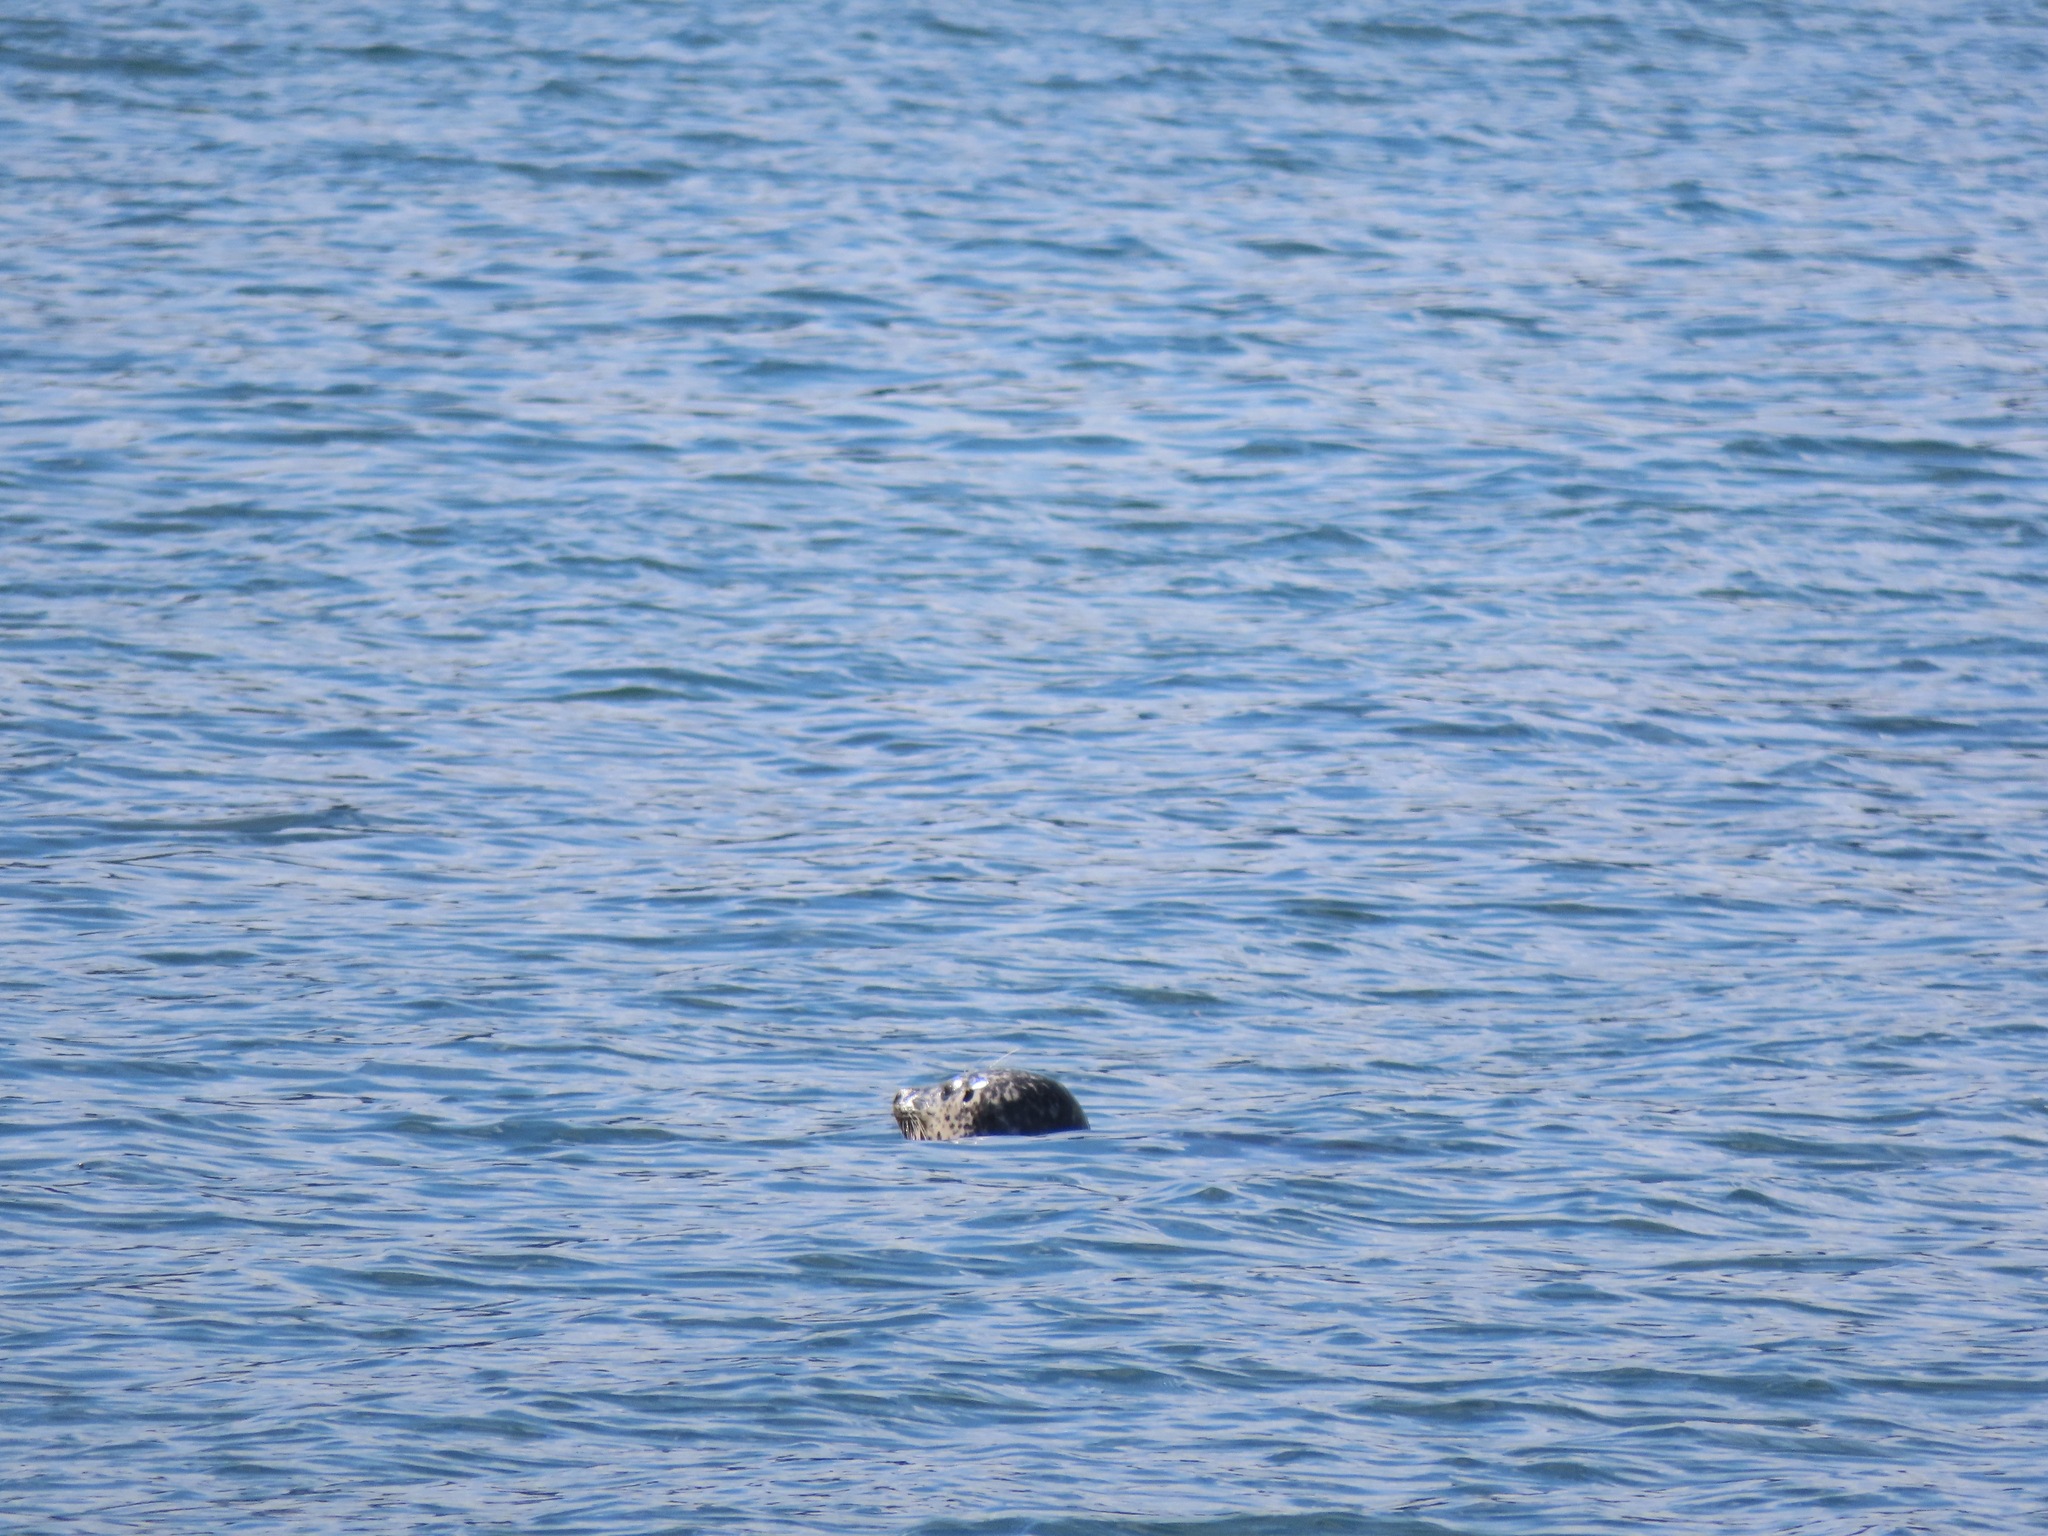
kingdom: Animalia
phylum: Chordata
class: Mammalia
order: Carnivora
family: Phocidae
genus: Phoca
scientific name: Phoca vitulina
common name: Harbor seal
